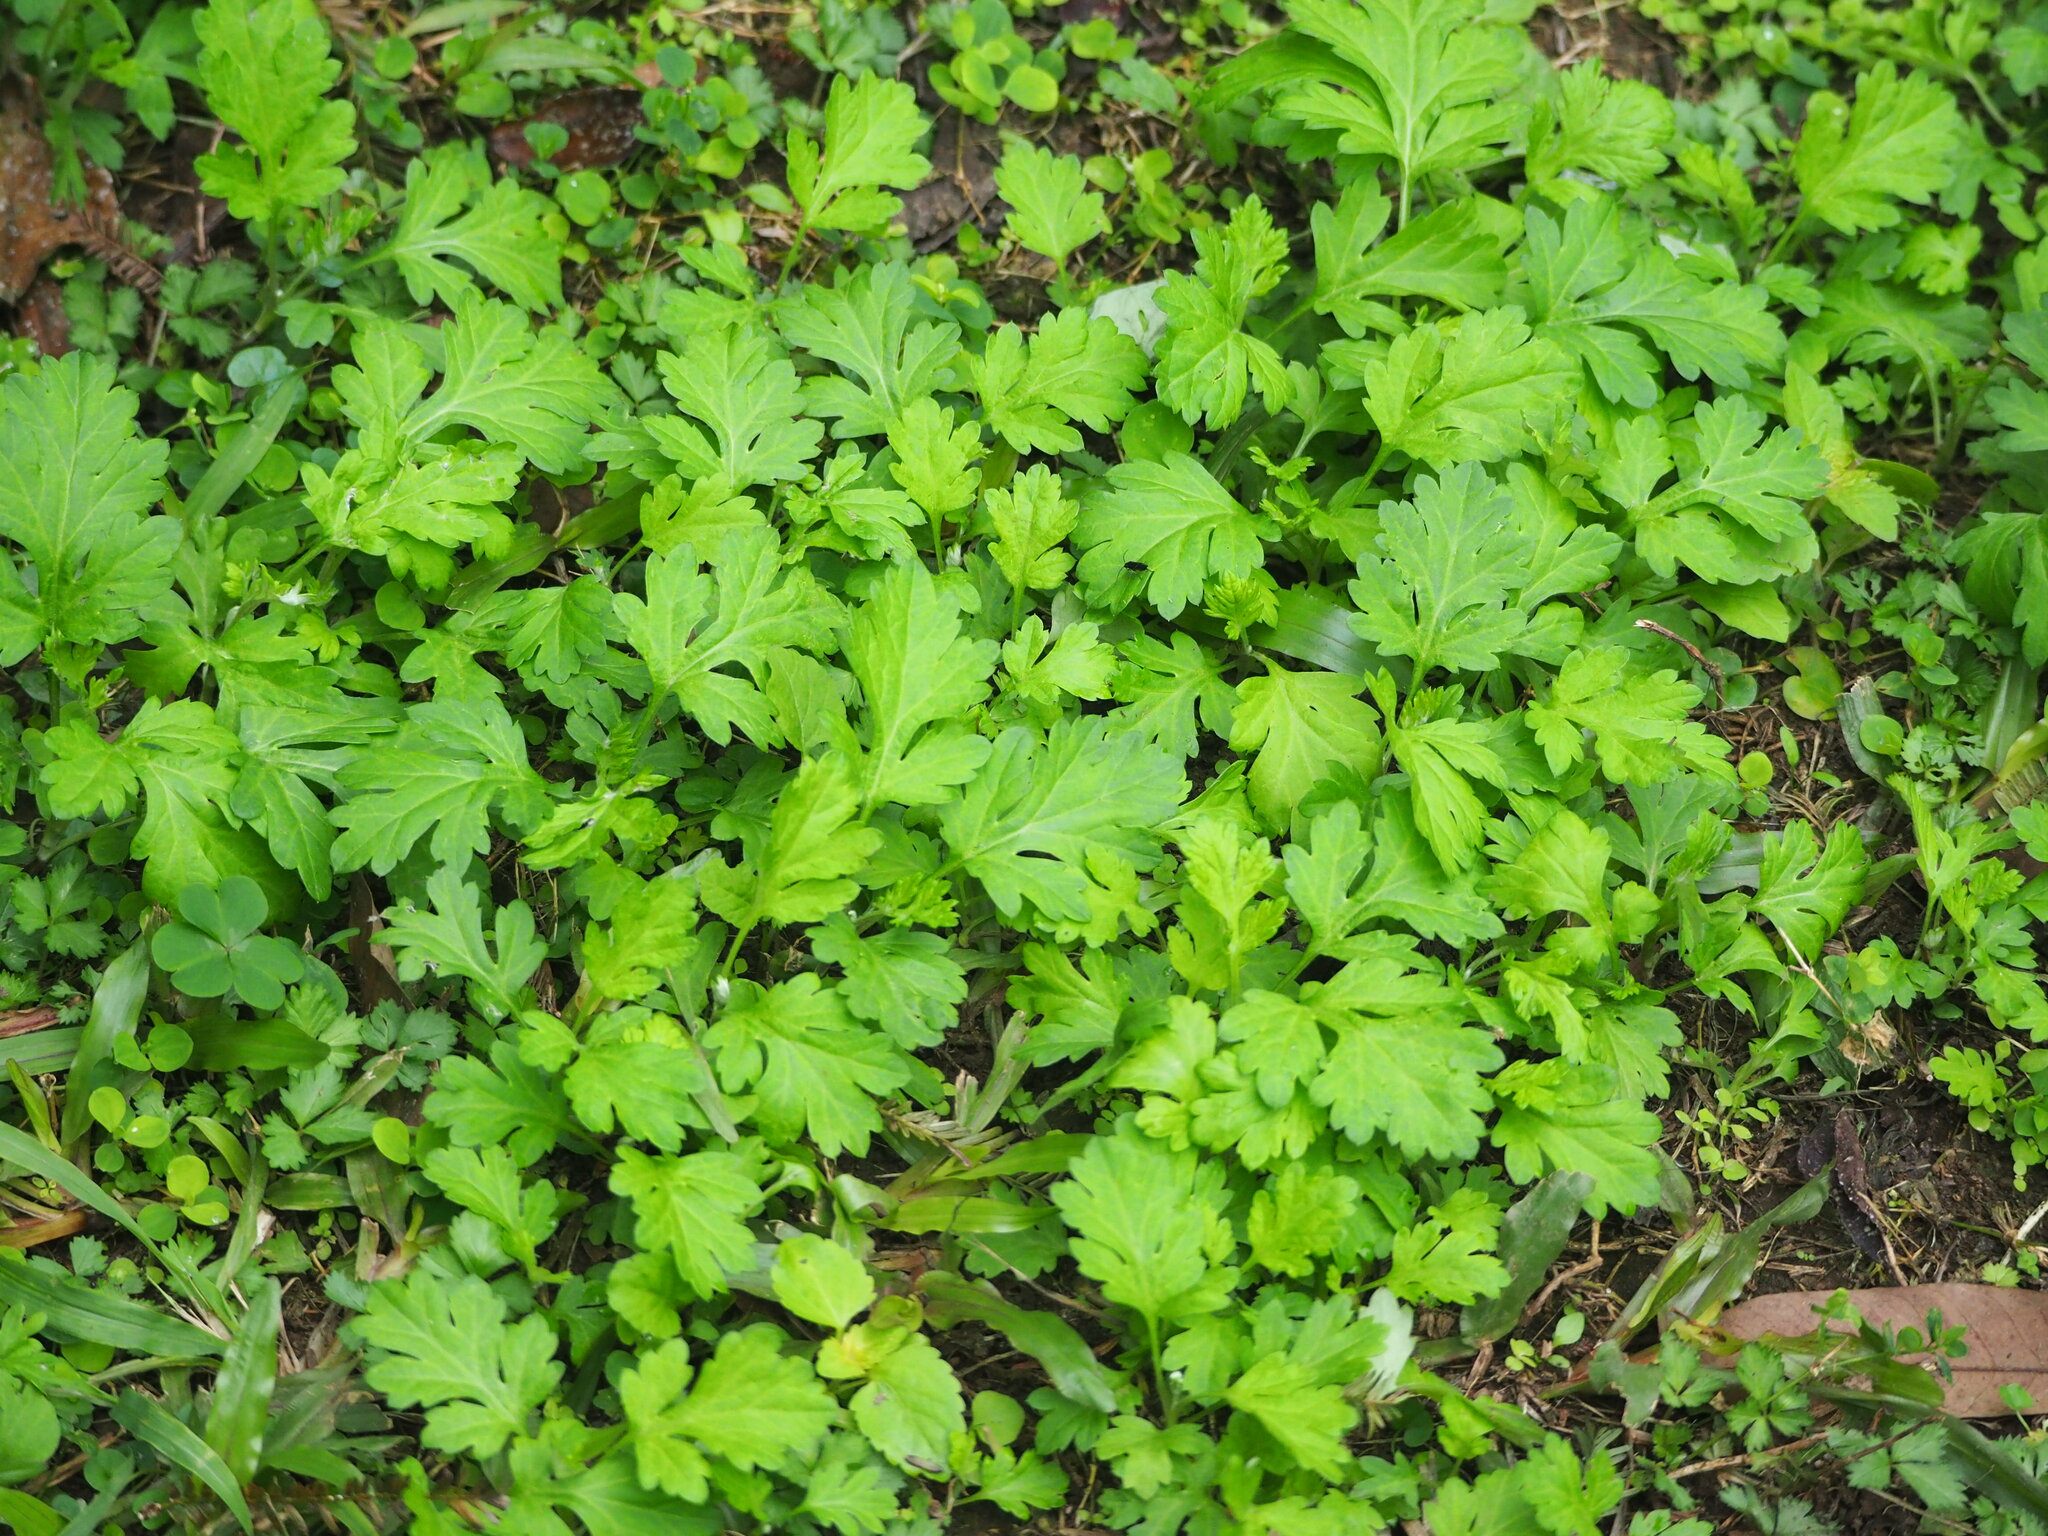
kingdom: Plantae
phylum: Tracheophyta
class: Magnoliopsida
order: Asterales
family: Asteraceae
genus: Artemisia
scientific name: Artemisia indica
